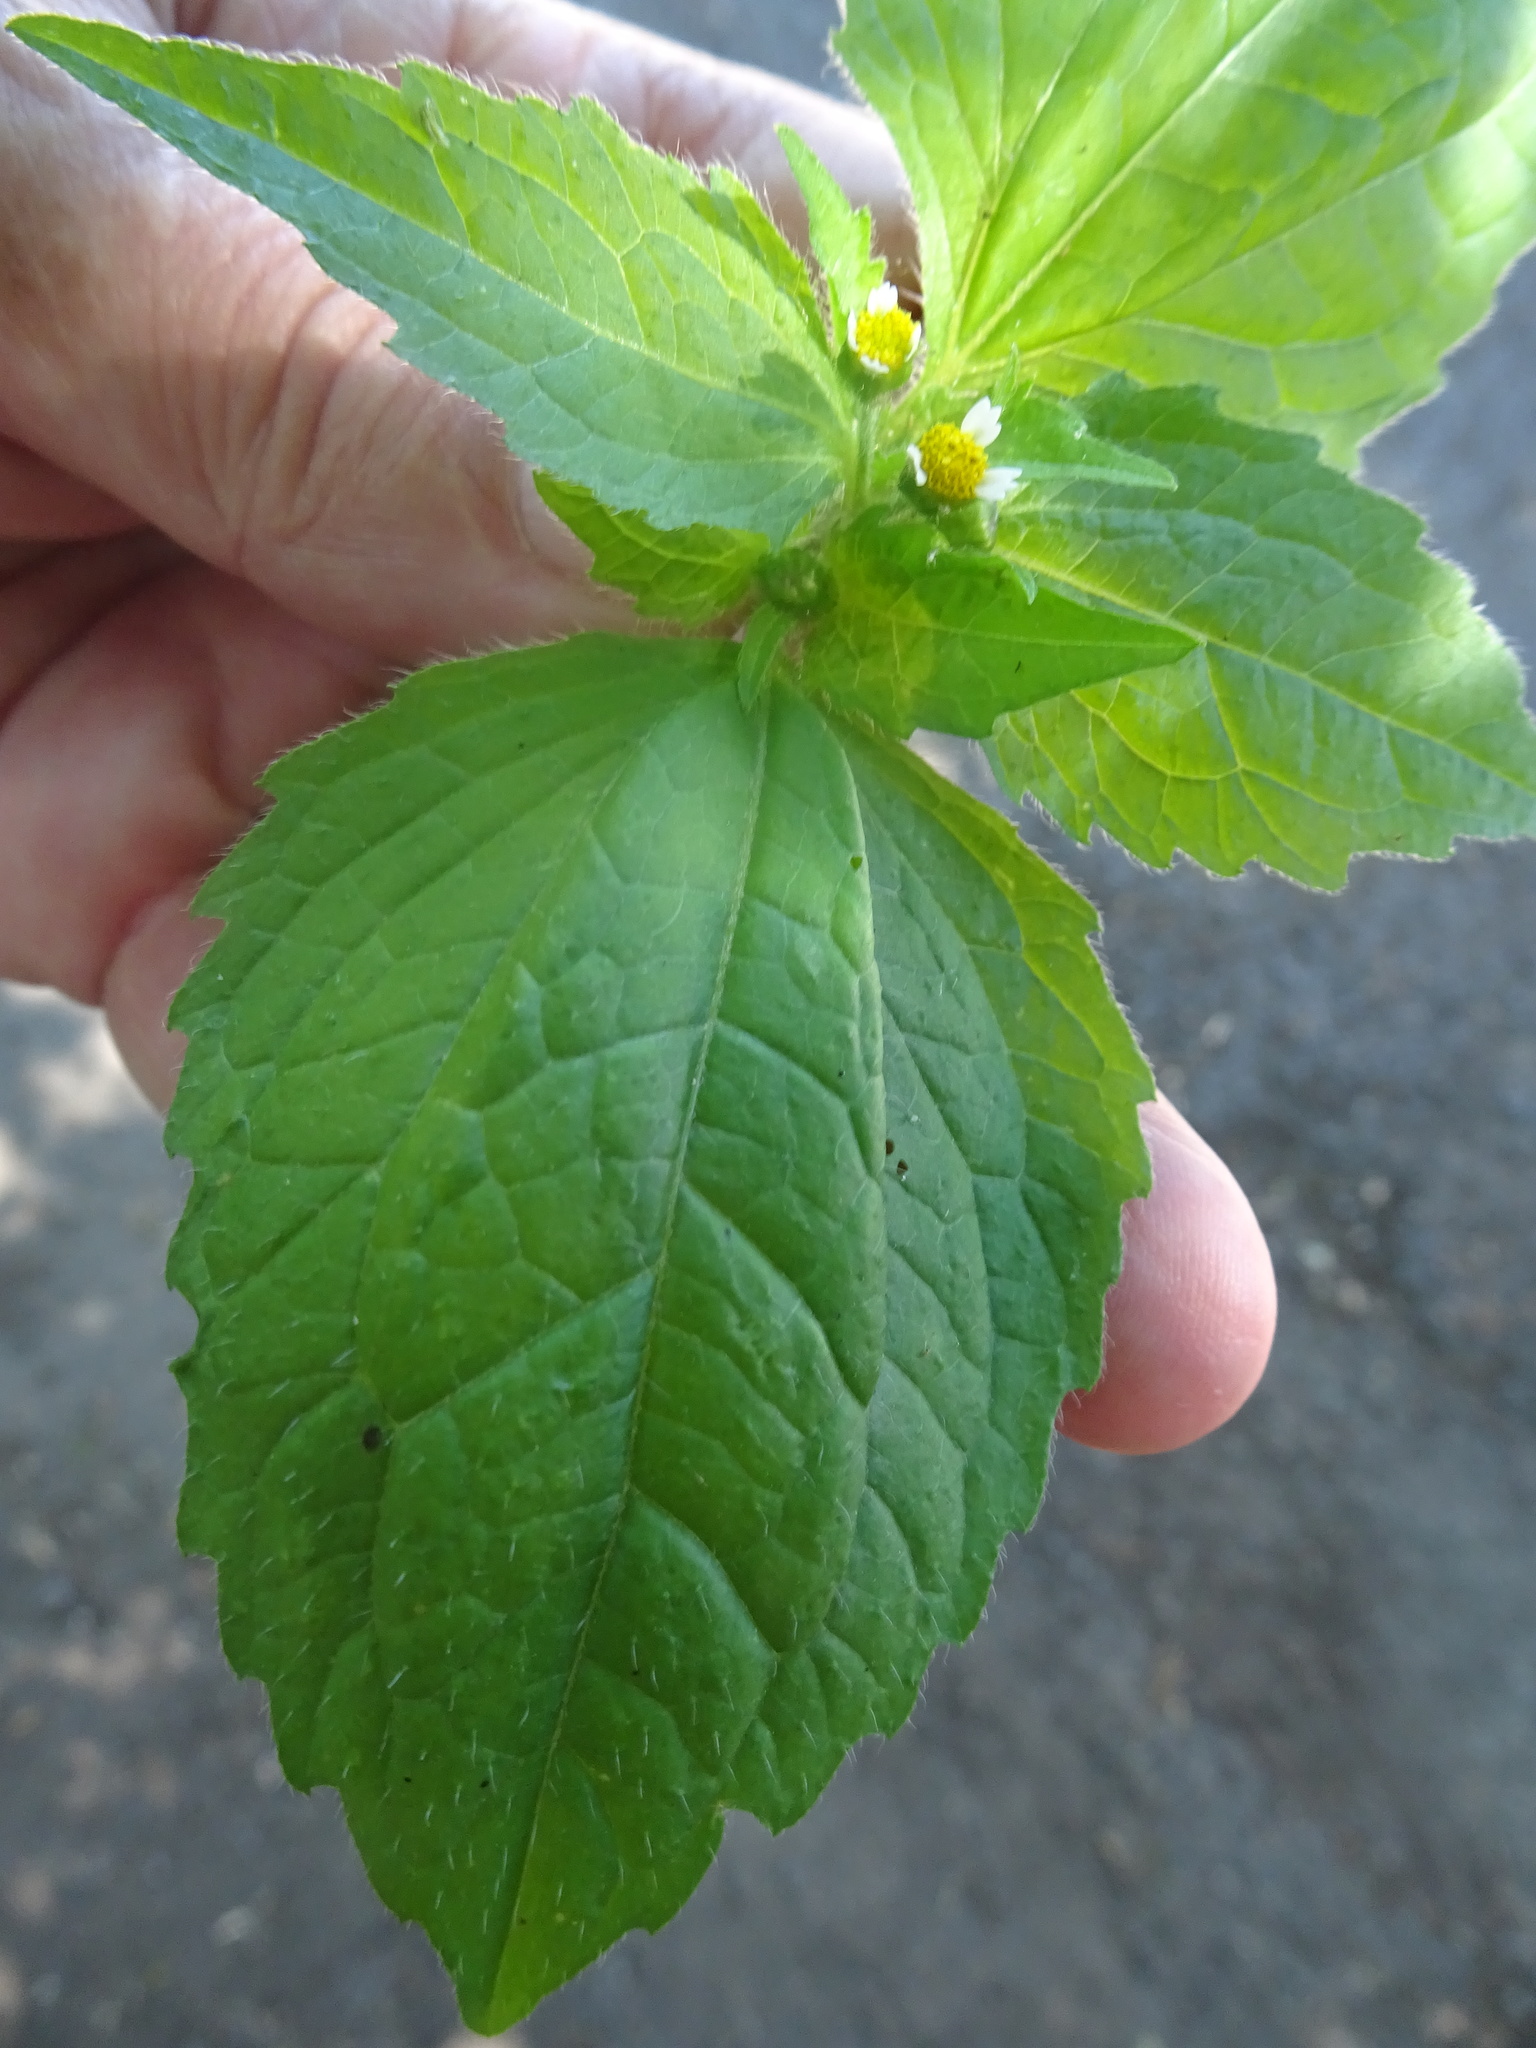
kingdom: Plantae
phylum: Tracheophyta
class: Magnoliopsida
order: Asterales
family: Asteraceae
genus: Galinsoga
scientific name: Galinsoga quadriradiata
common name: Shaggy soldier
